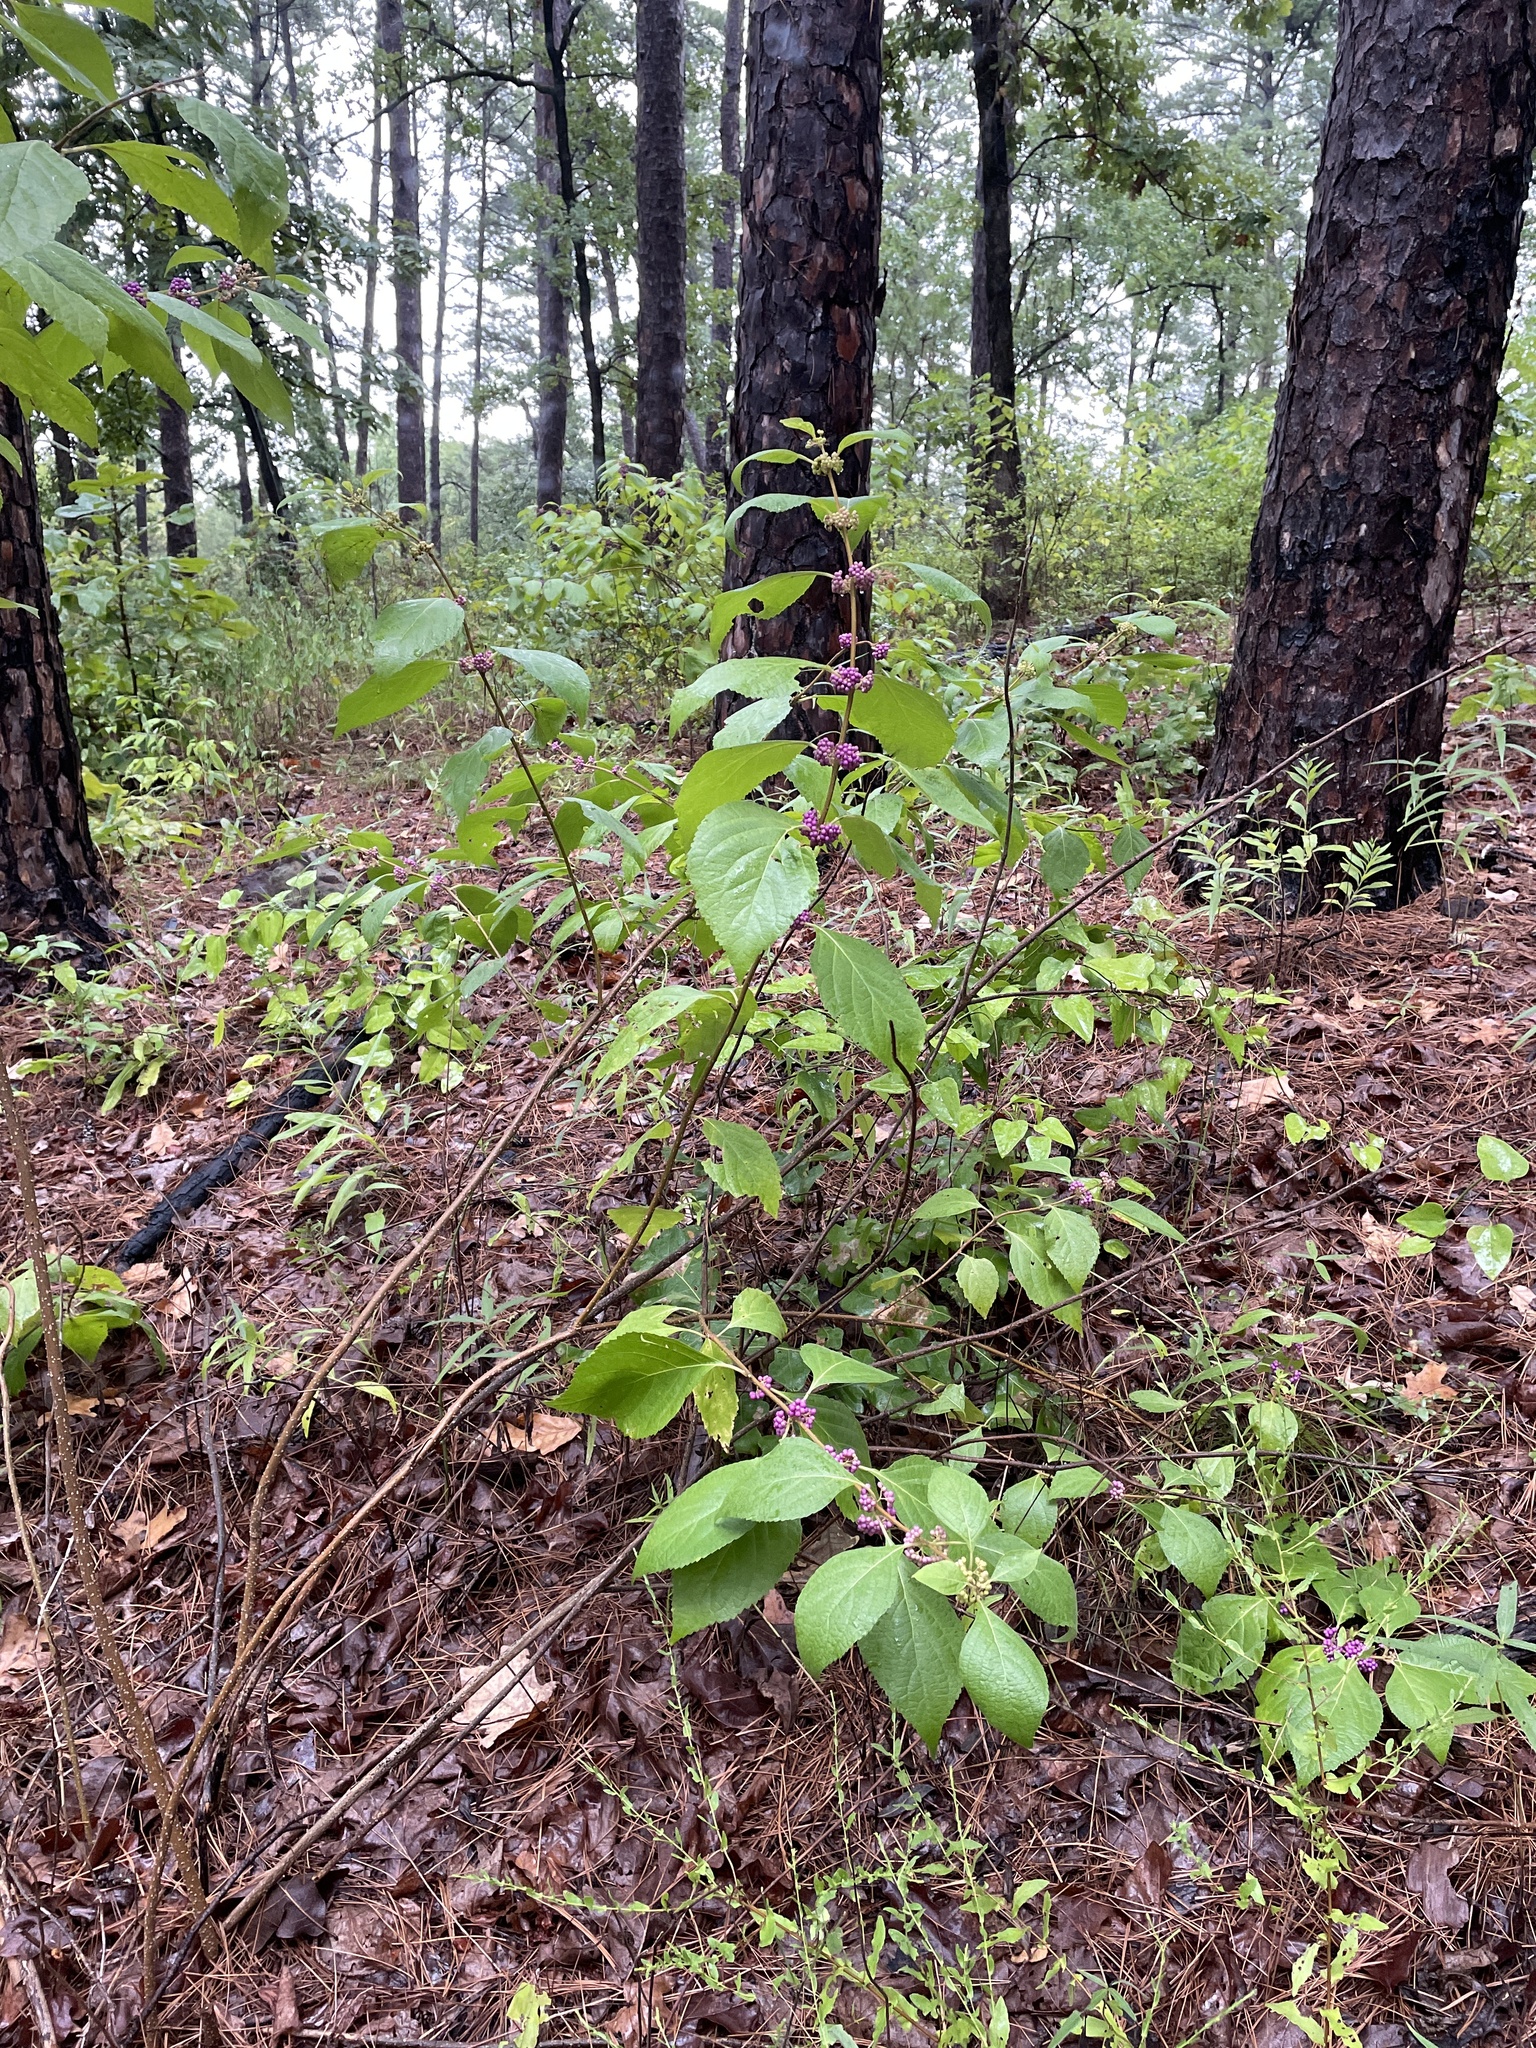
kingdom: Plantae
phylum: Tracheophyta
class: Magnoliopsida
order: Lamiales
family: Lamiaceae
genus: Callicarpa
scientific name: Callicarpa americana
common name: American beautyberry
